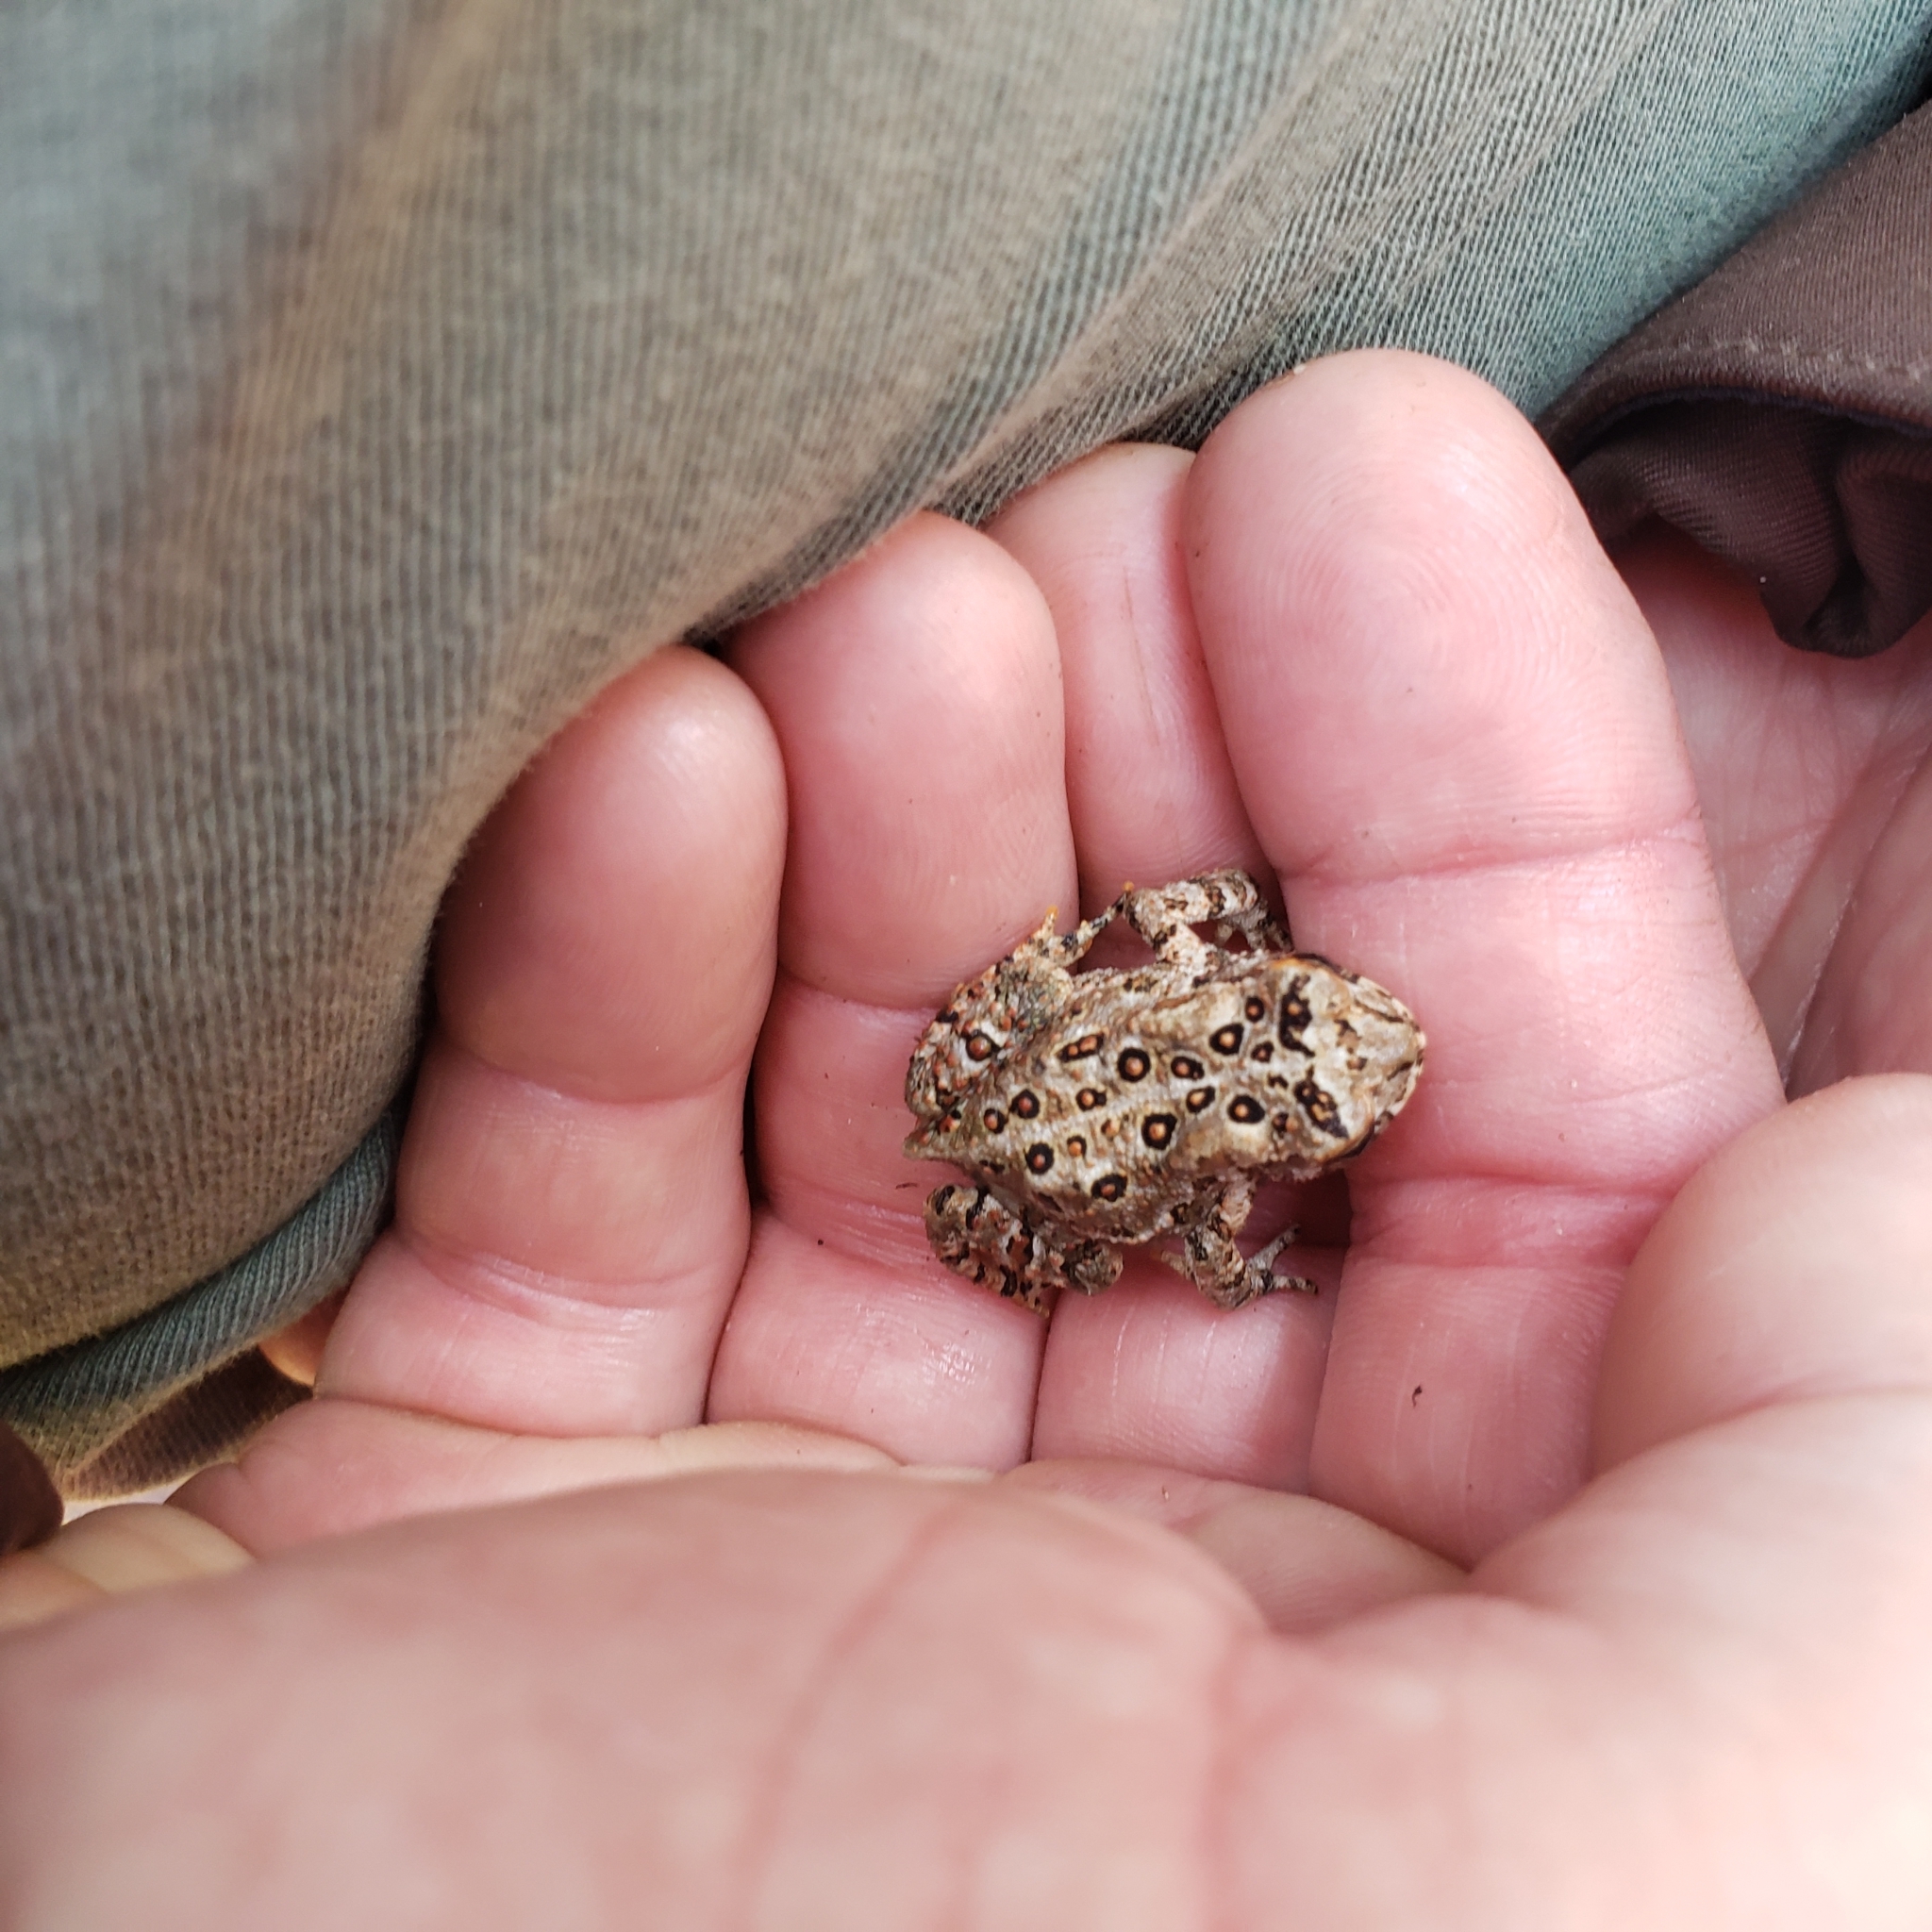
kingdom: Animalia
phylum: Chordata
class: Amphibia
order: Anura
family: Bufonidae
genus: Anaxyrus
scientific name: Anaxyrus americanus
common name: American toad
